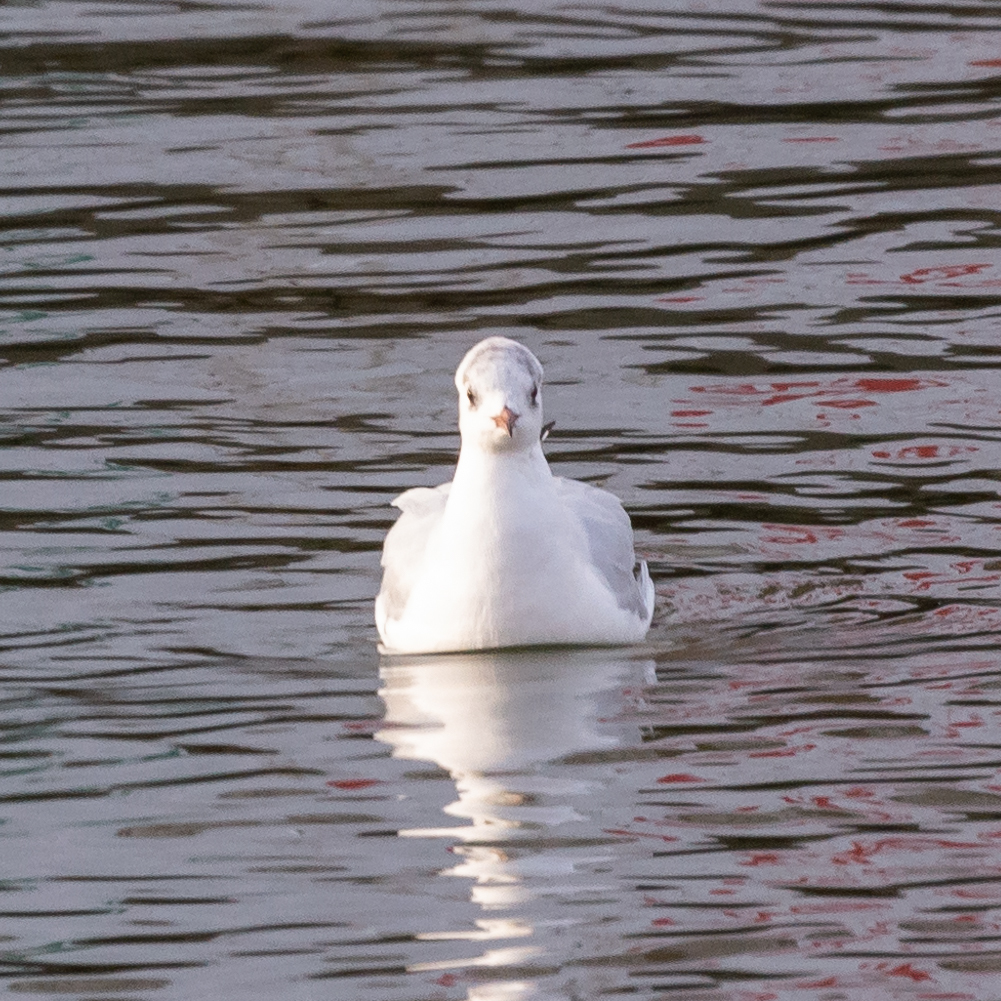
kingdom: Animalia
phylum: Chordata
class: Aves
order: Charadriiformes
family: Laridae
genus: Chroicocephalus
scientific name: Chroicocephalus ridibundus
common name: Black-headed gull
